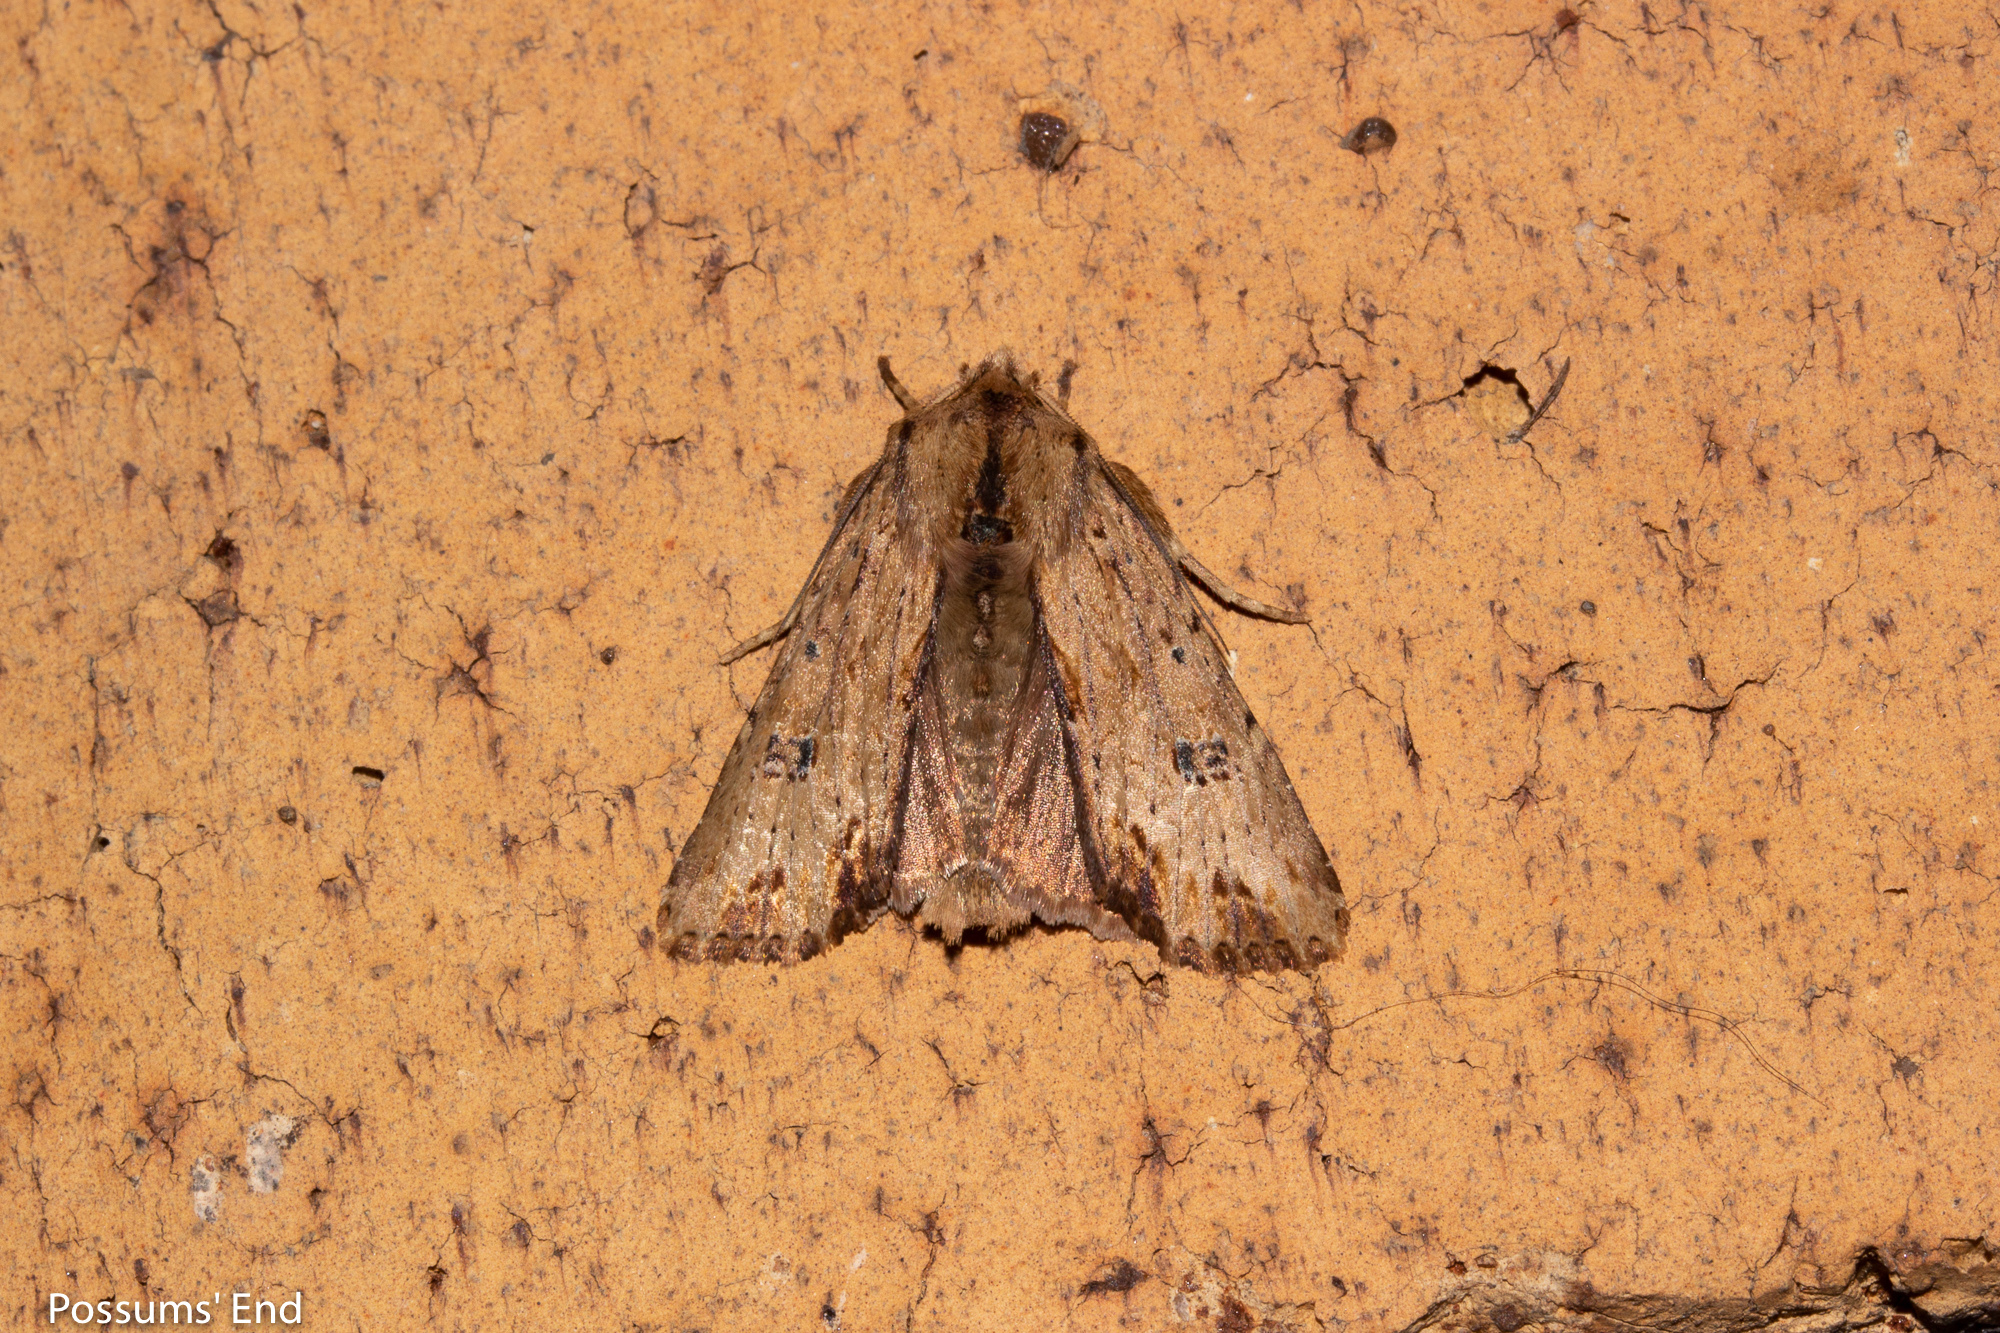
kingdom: Animalia
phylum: Arthropoda
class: Insecta
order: Lepidoptera
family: Noctuidae
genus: Ichneutica
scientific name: Ichneutica
